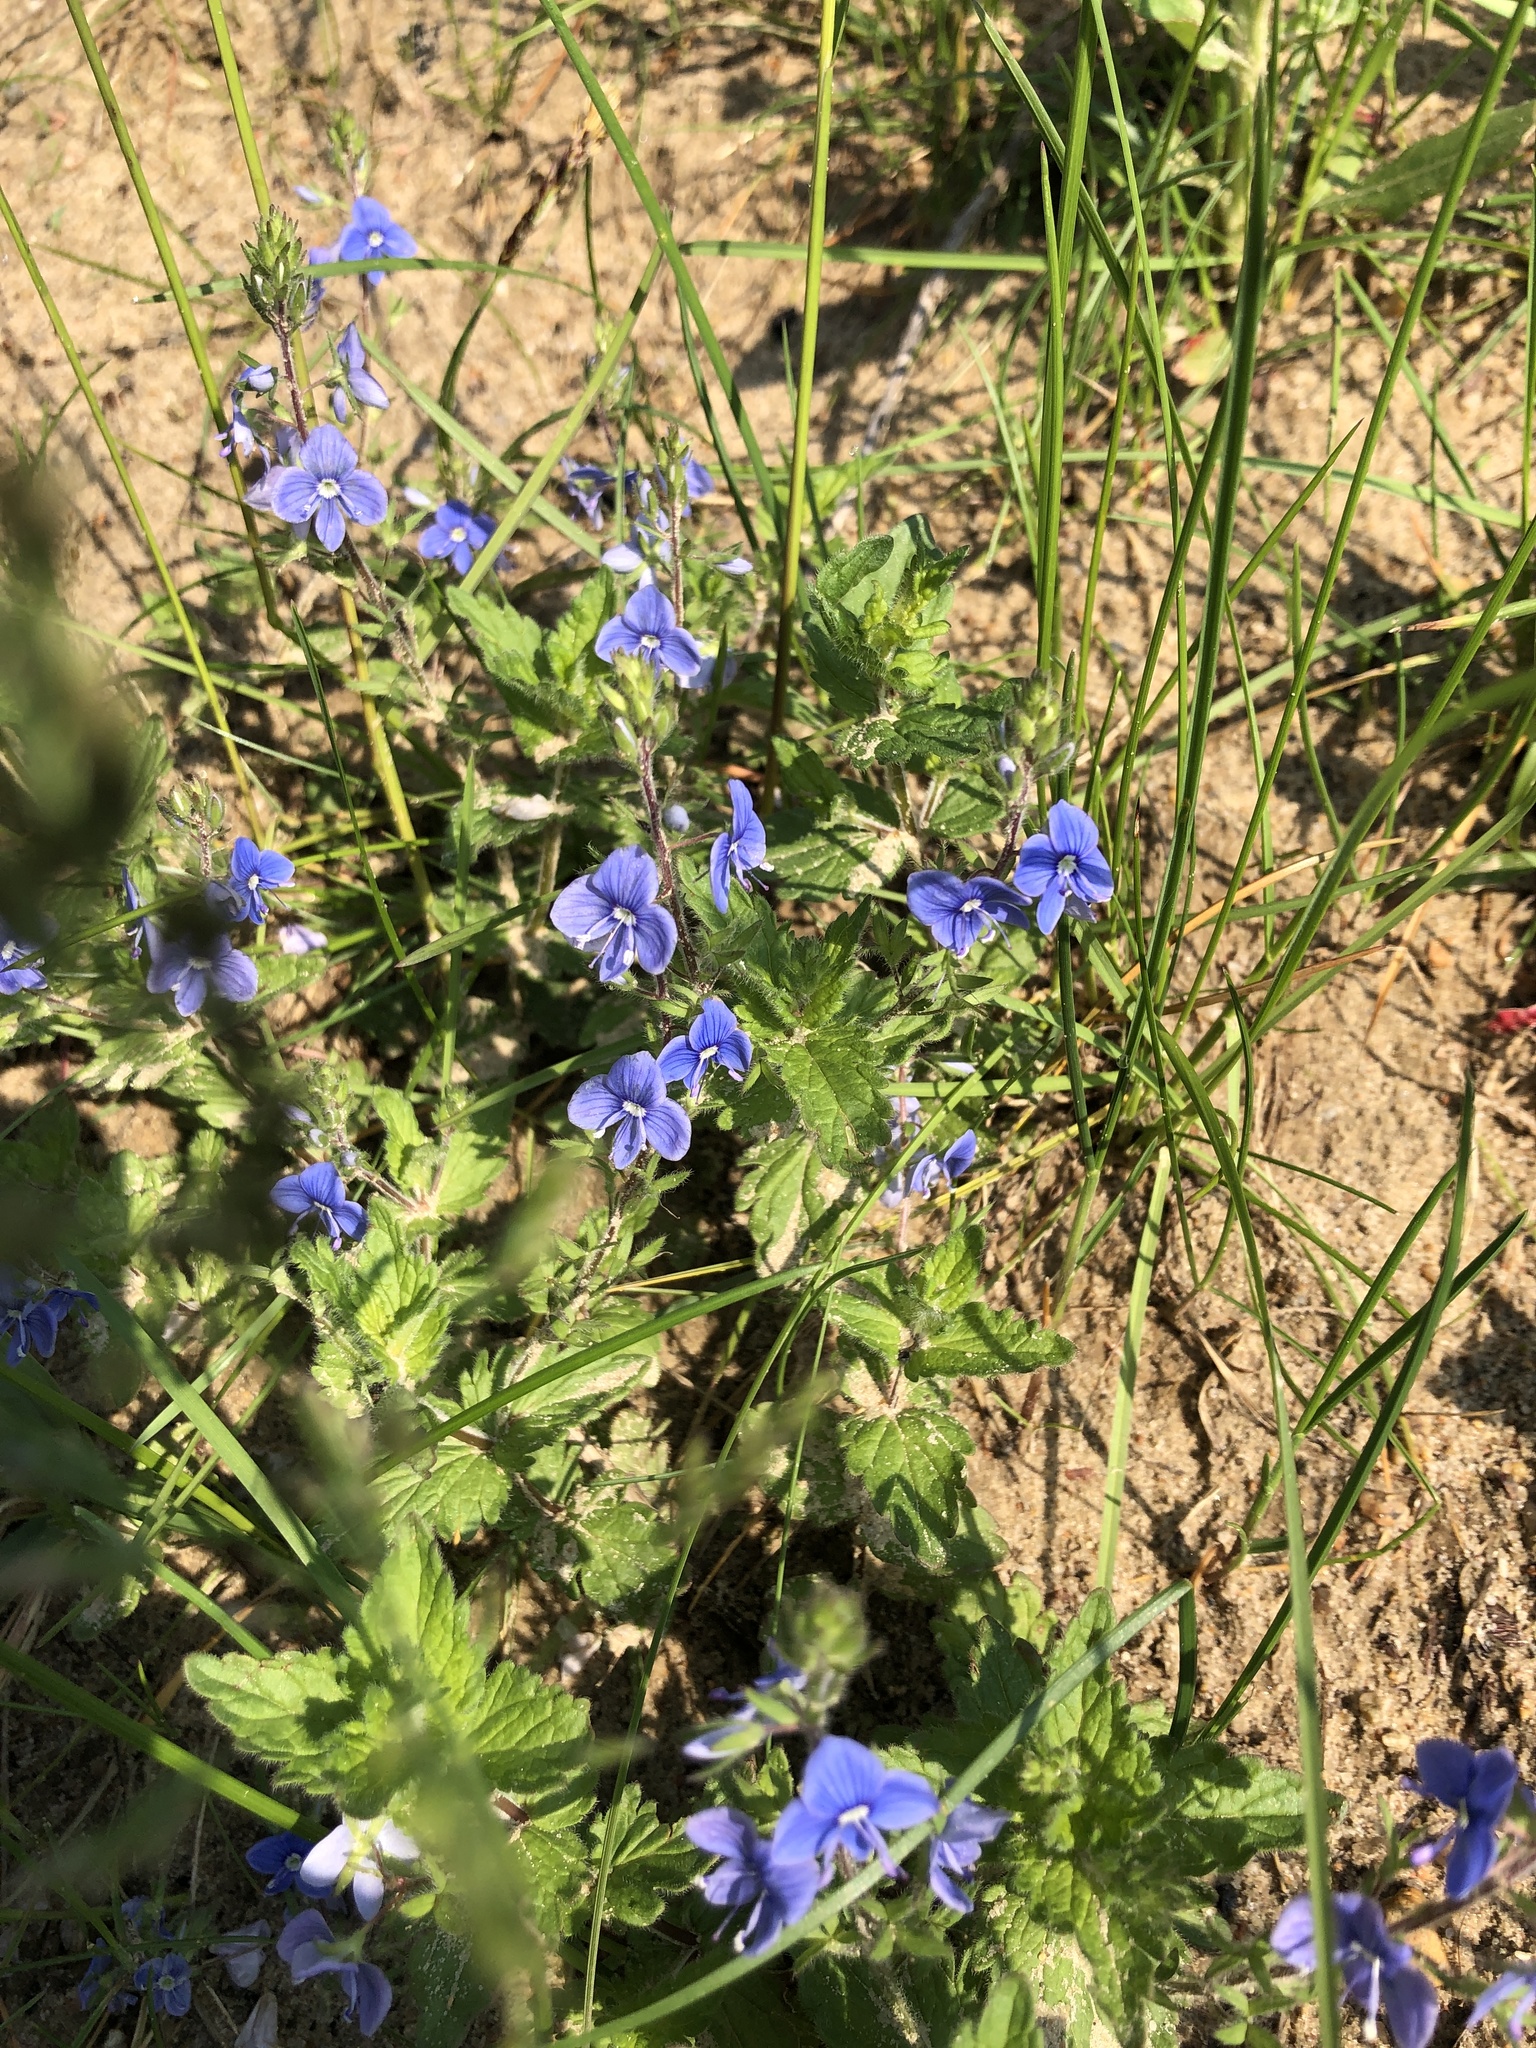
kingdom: Plantae
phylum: Tracheophyta
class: Magnoliopsida
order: Lamiales
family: Plantaginaceae
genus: Veronica
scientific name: Veronica chamaedrys
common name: Germander speedwell
